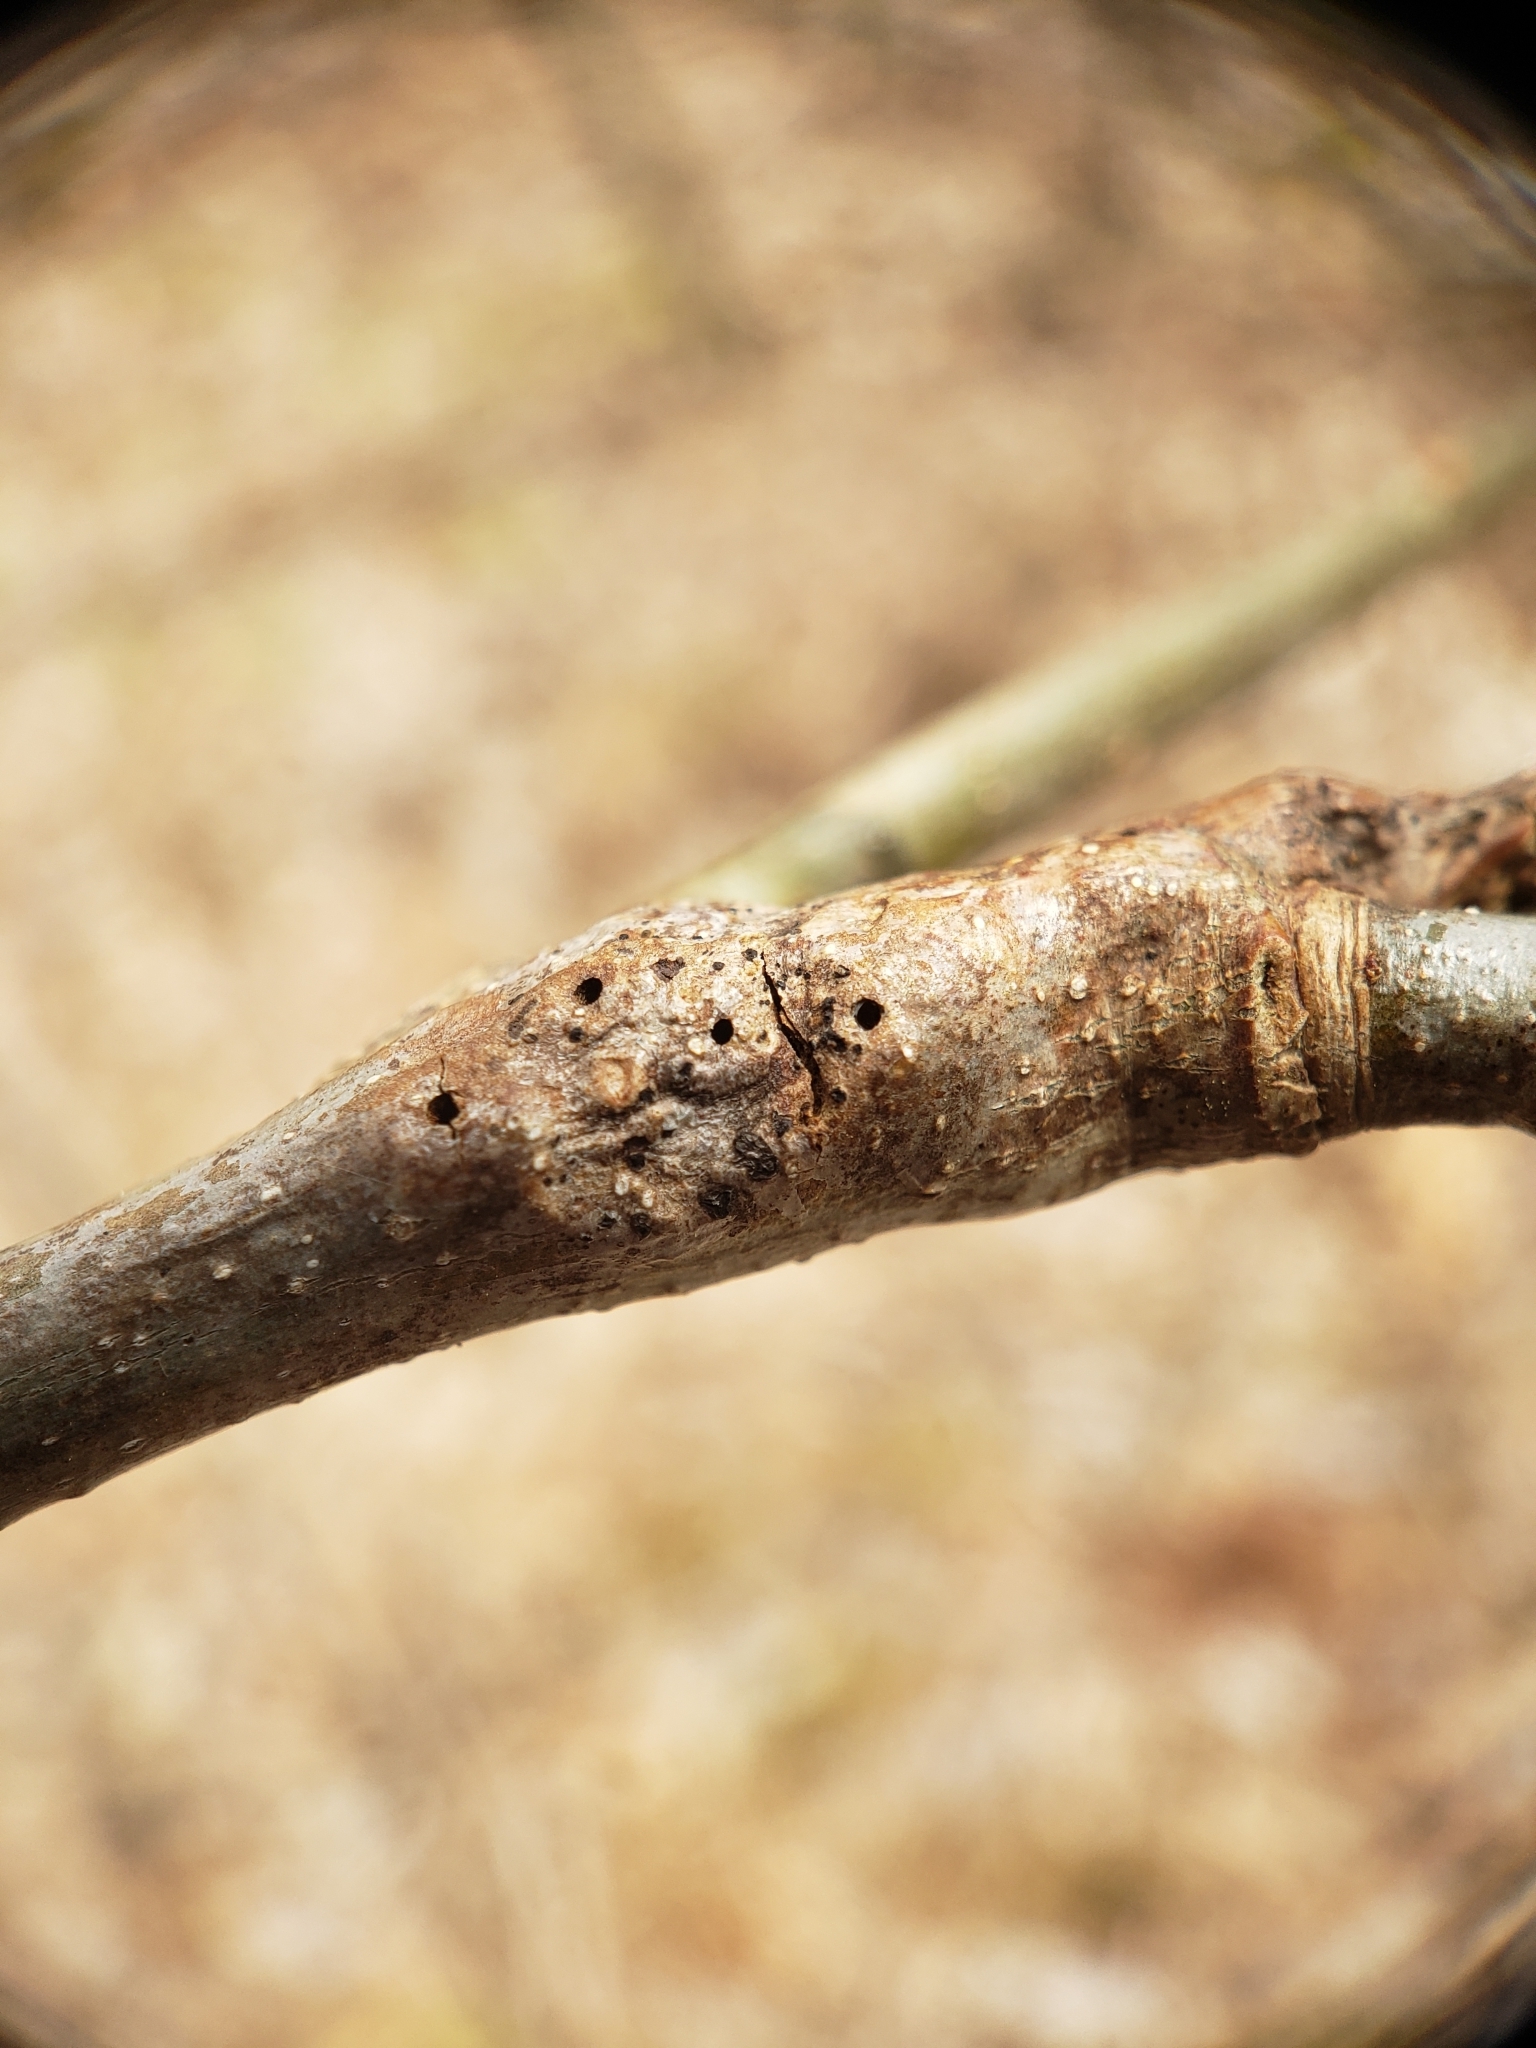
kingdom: Animalia
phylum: Arthropoda
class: Insecta
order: Hymenoptera
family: Cynipidae
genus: Callirhytis
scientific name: Callirhytis
